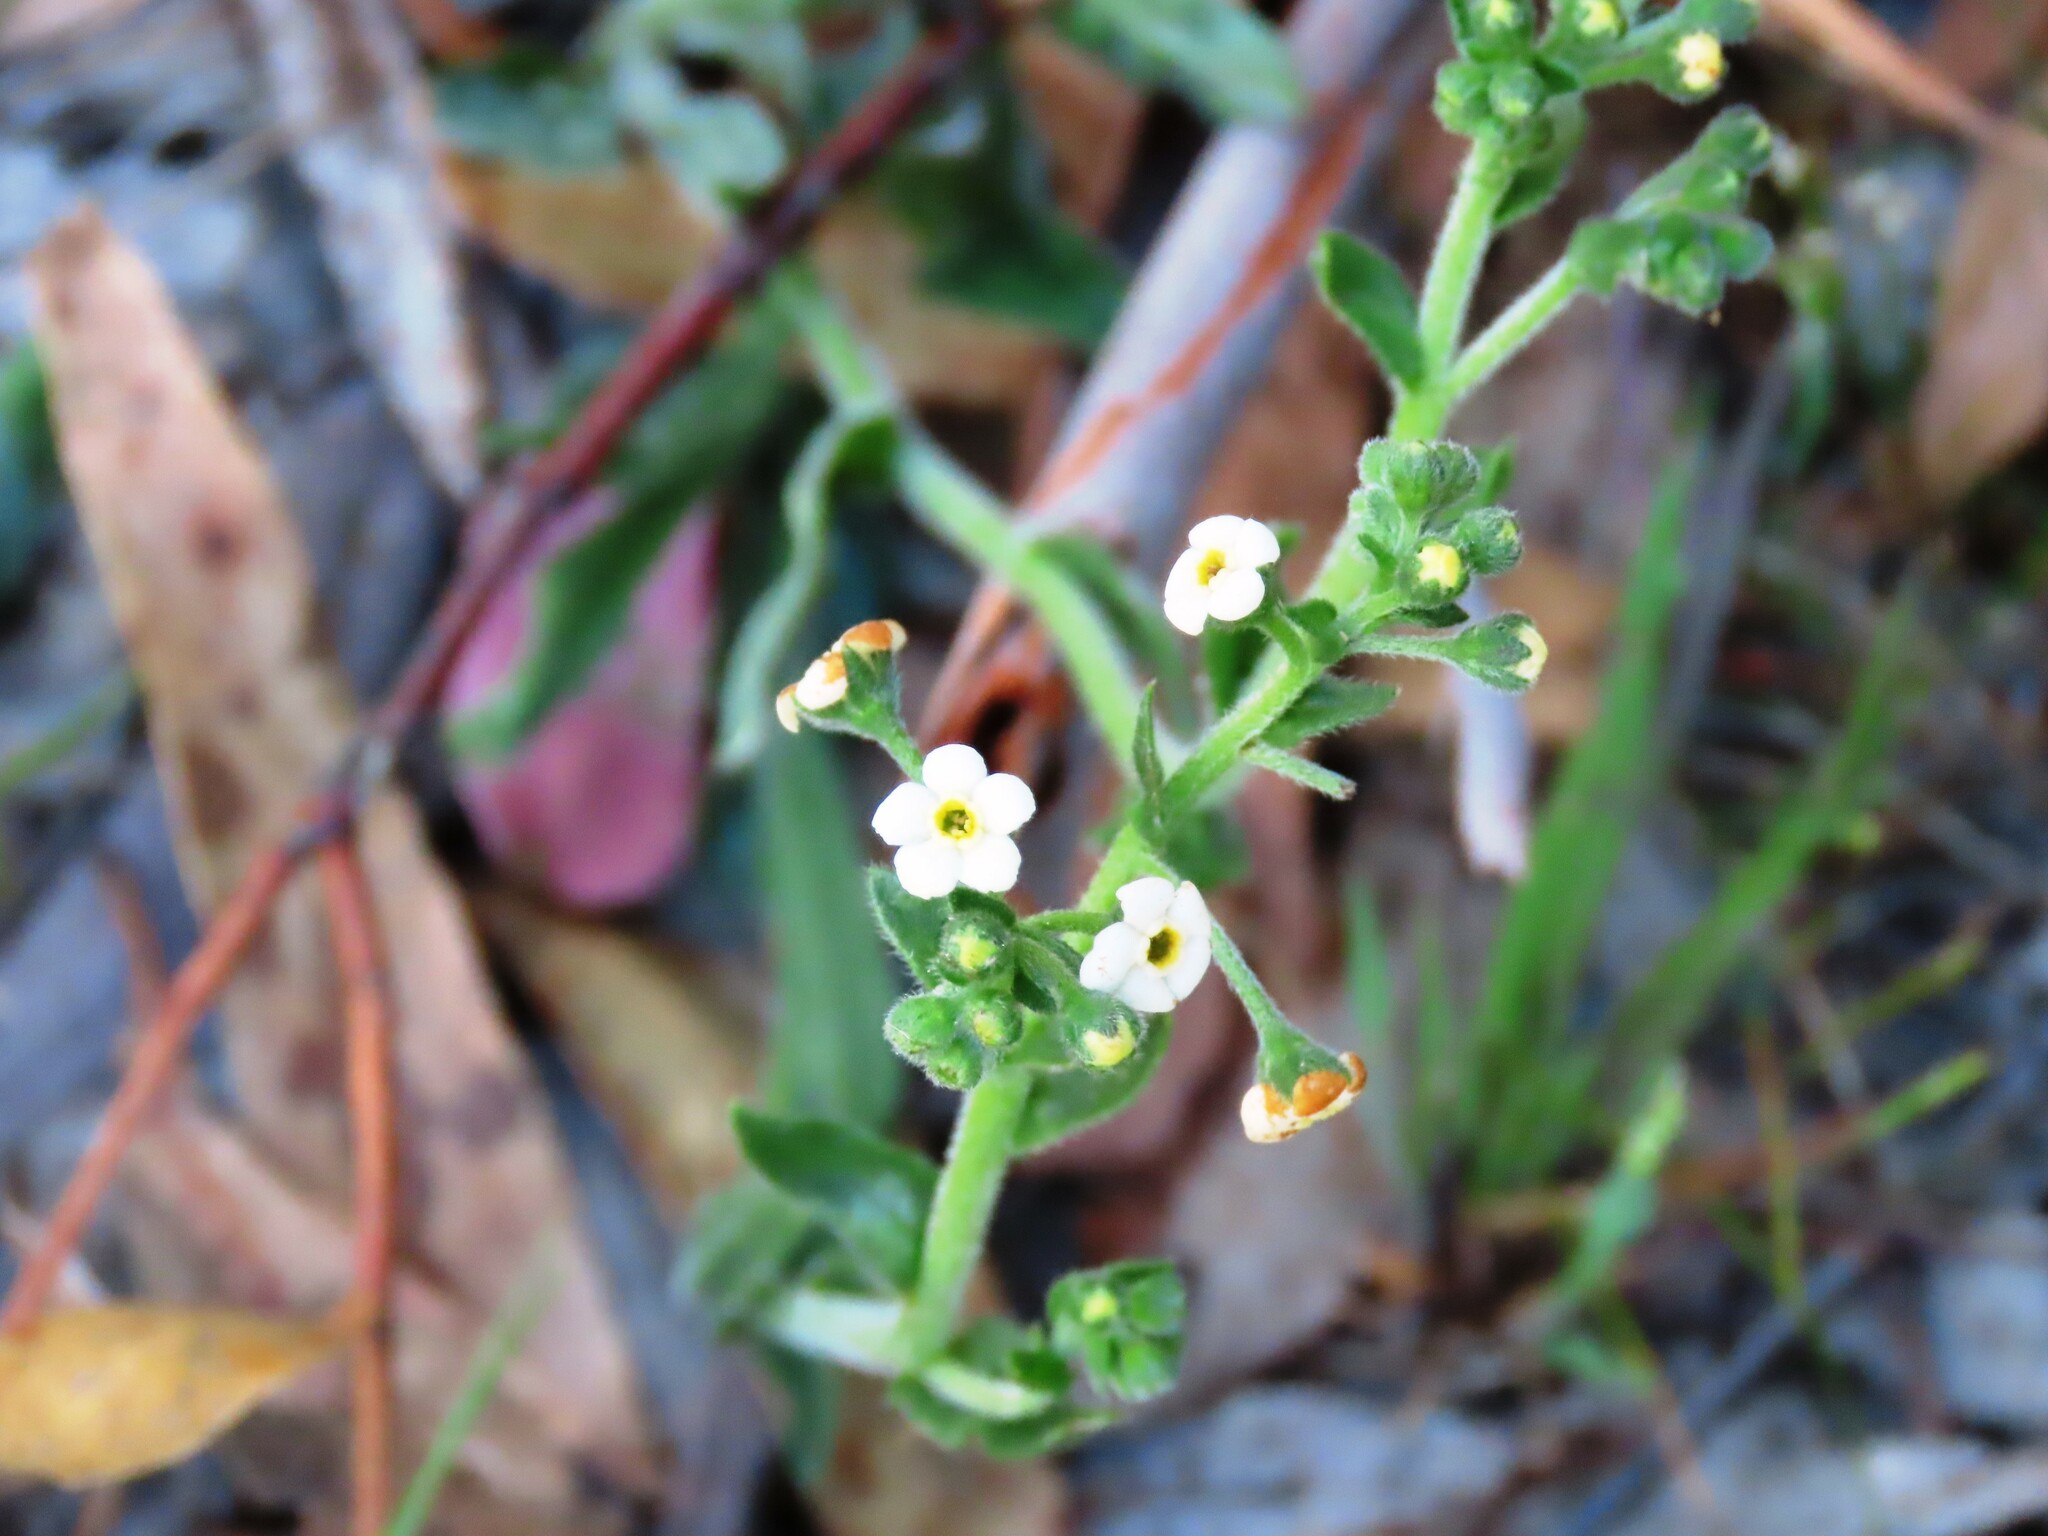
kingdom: Plantae
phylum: Tracheophyta
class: Magnoliopsida
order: Boraginales
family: Boraginaceae
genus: Hackelia
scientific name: Hackelia suaveolens
